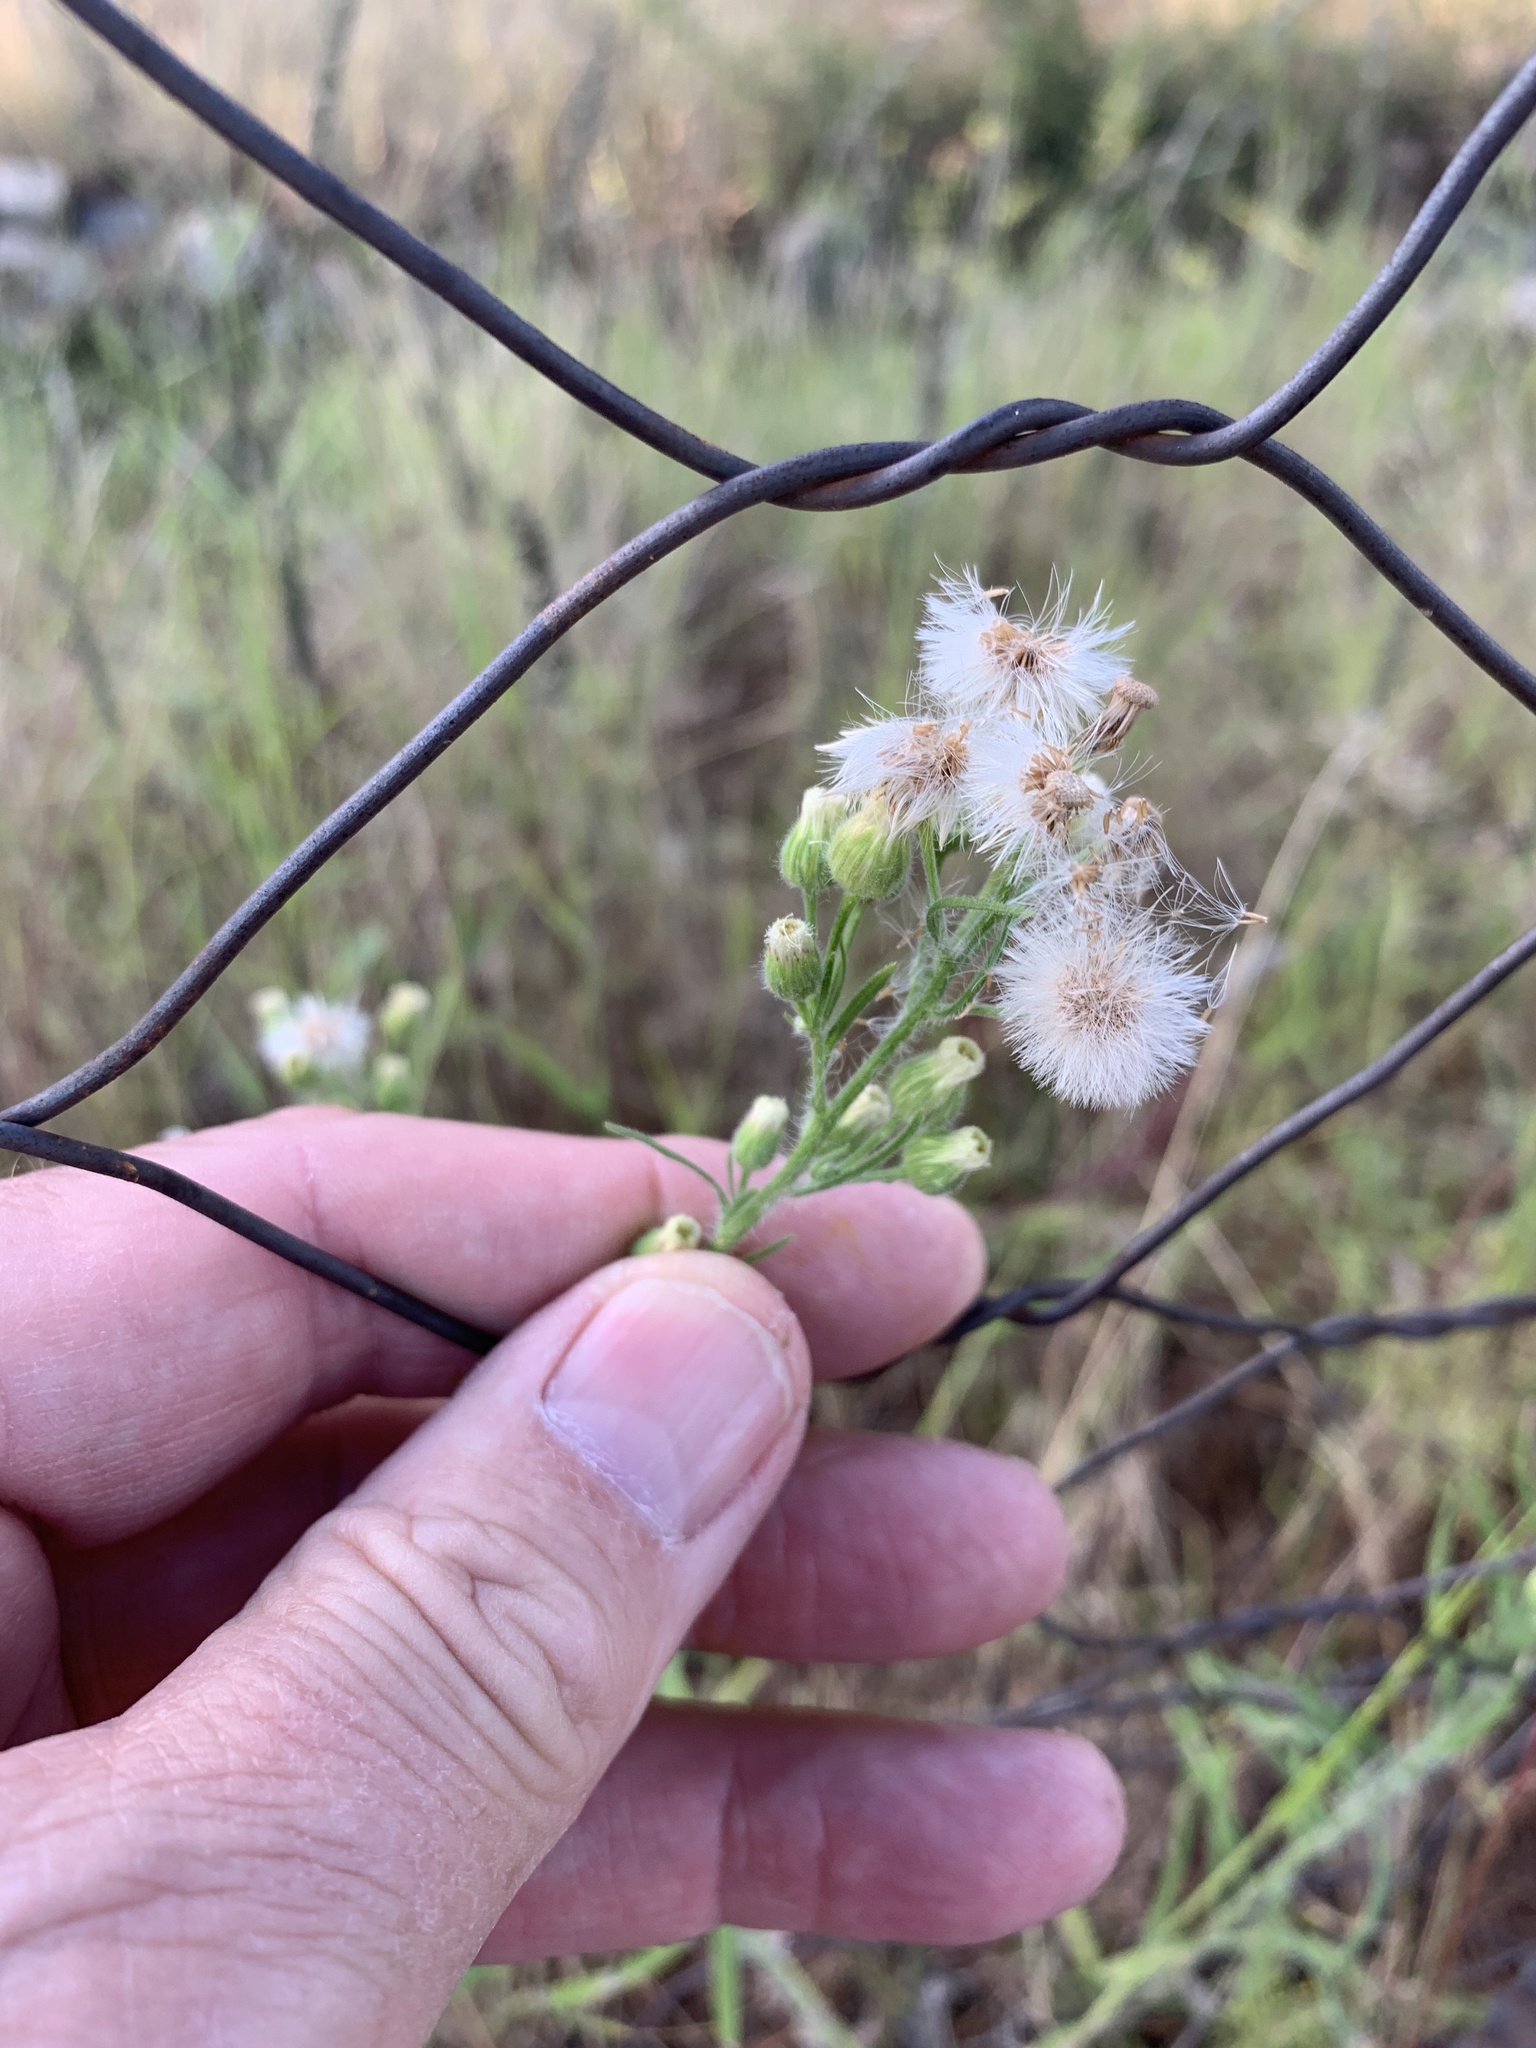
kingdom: Plantae
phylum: Tracheophyta
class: Magnoliopsida
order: Asterales
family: Asteraceae
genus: Erigeron
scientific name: Erigeron bonariensis
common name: Argentine fleabane
